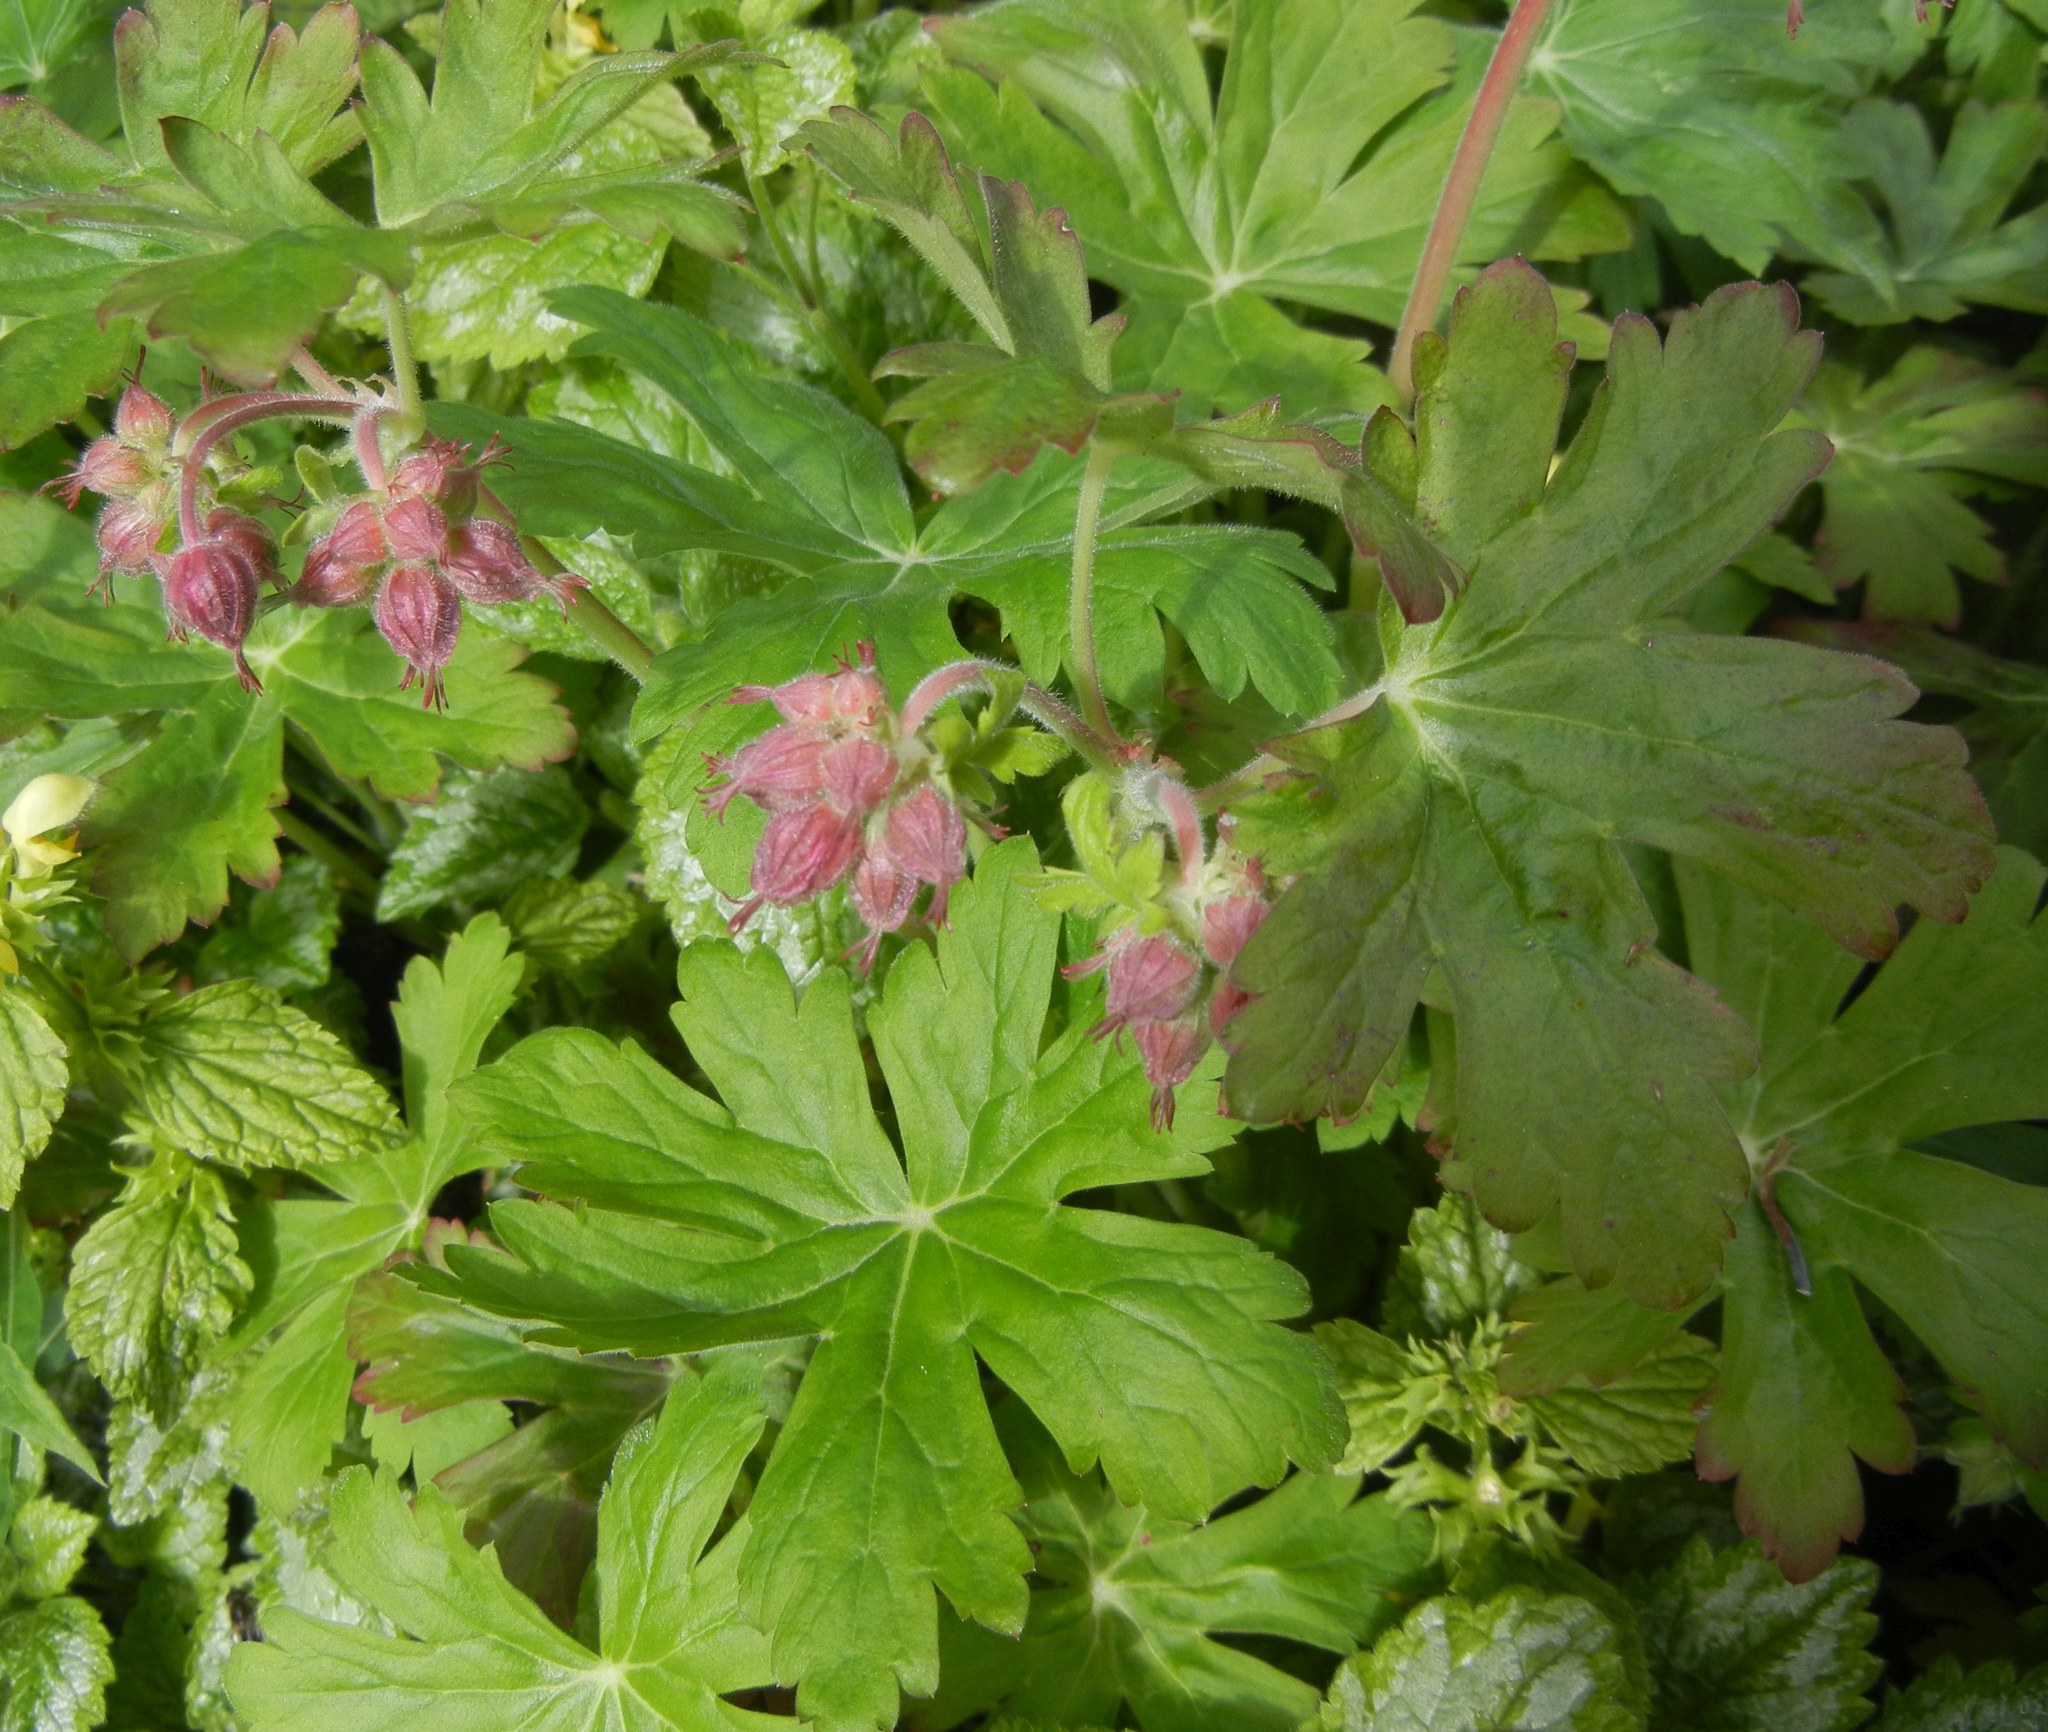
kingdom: Plantae
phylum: Tracheophyta
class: Magnoliopsida
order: Geraniales
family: Geraniaceae
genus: Geranium
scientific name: Geranium macrorrhizum
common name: Rock crane's-bill
